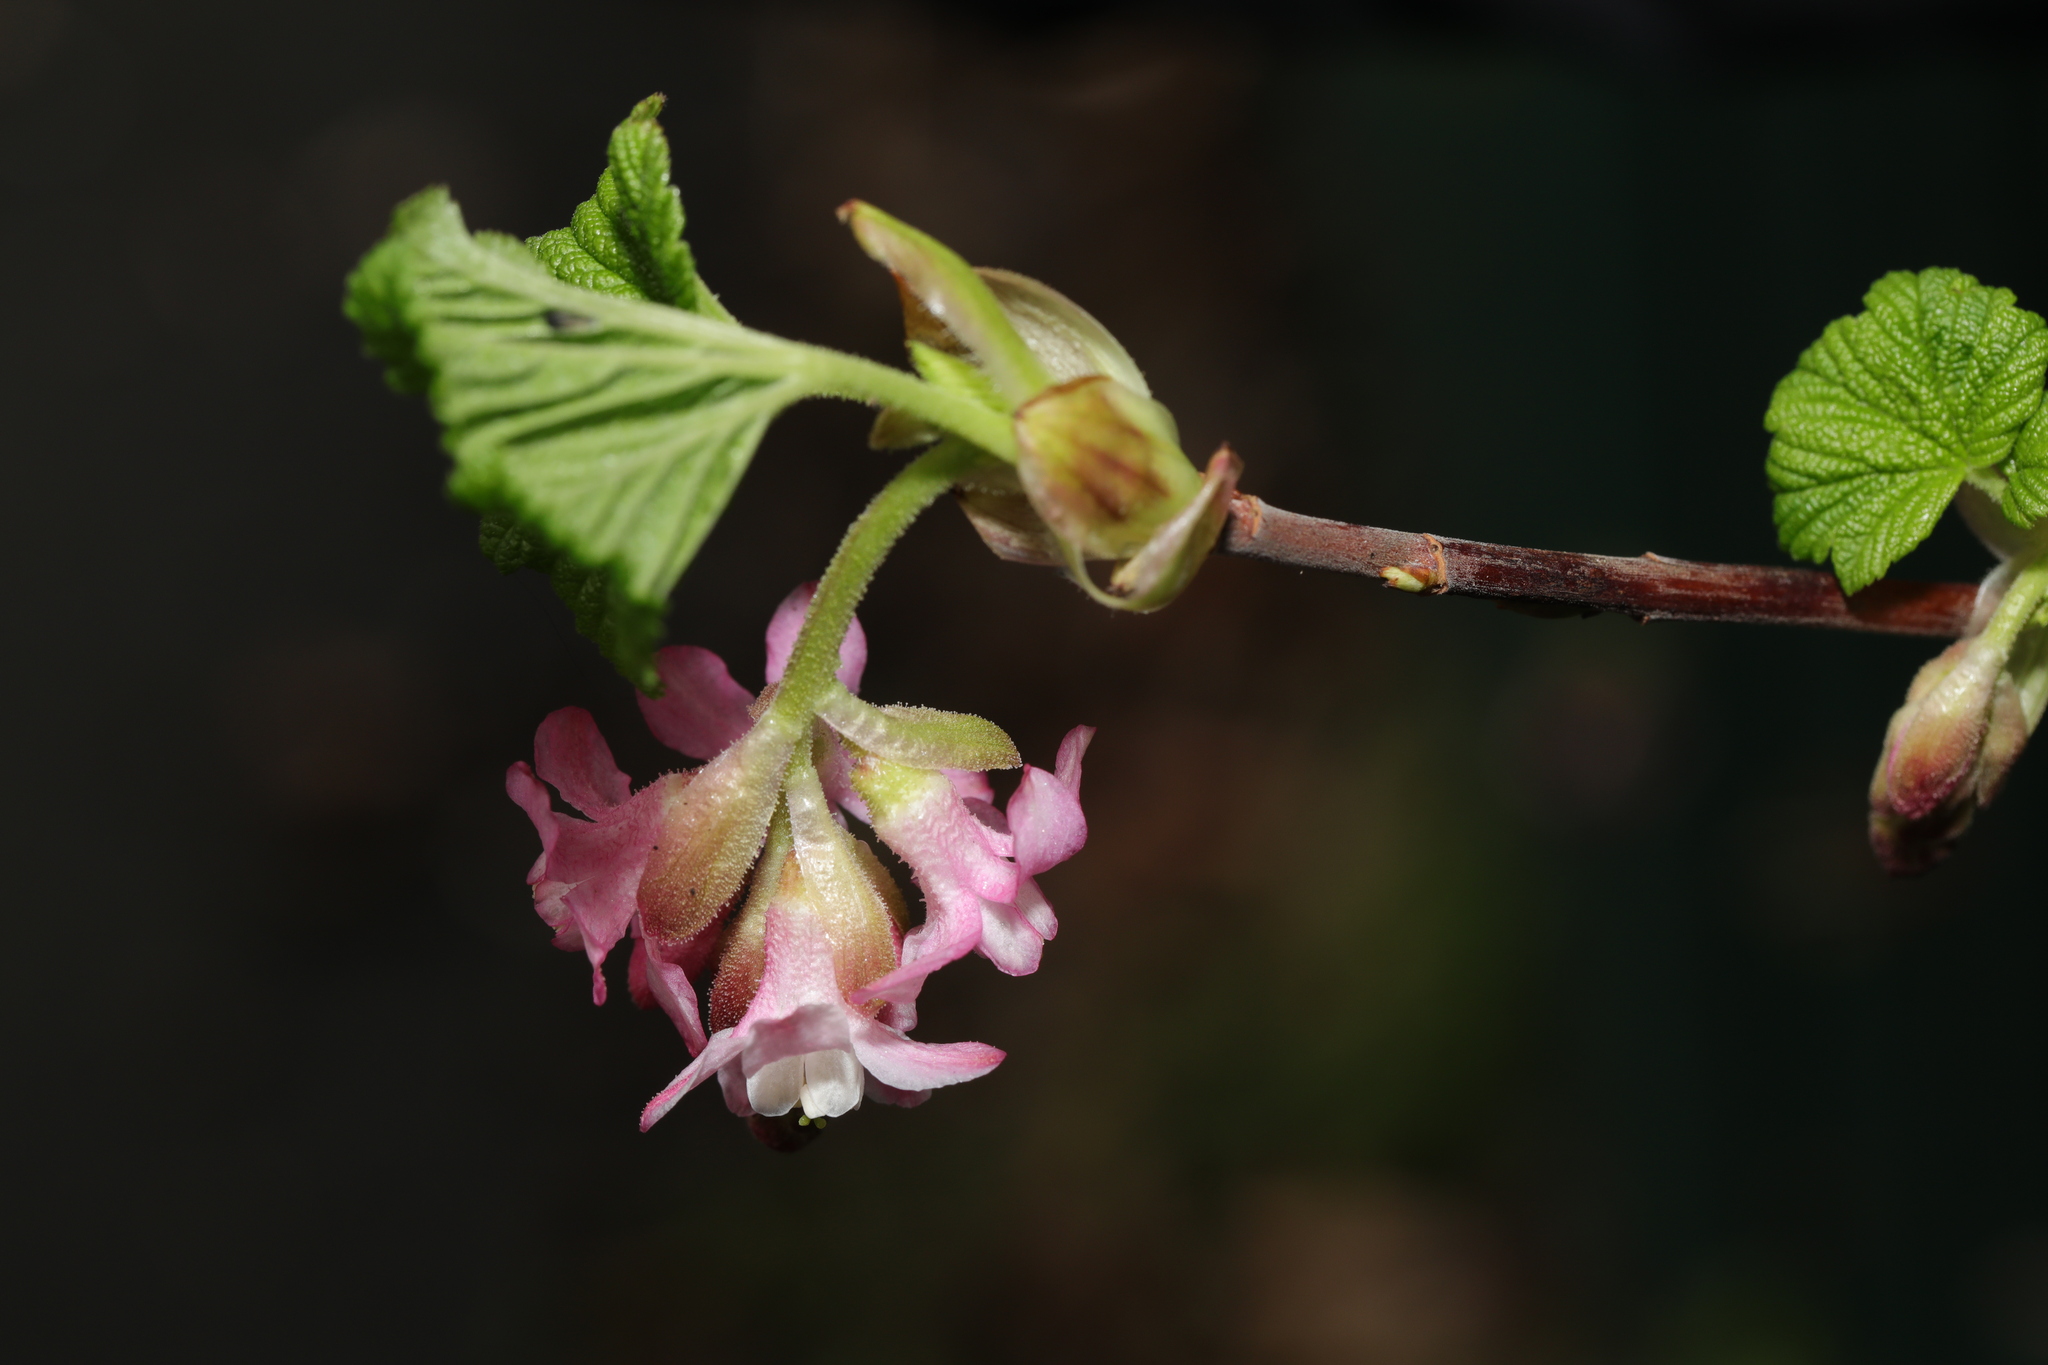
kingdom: Plantae
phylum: Tracheophyta
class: Magnoliopsida
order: Saxifragales
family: Grossulariaceae
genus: Ribes
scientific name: Ribes sanguineum
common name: Flowering currant
